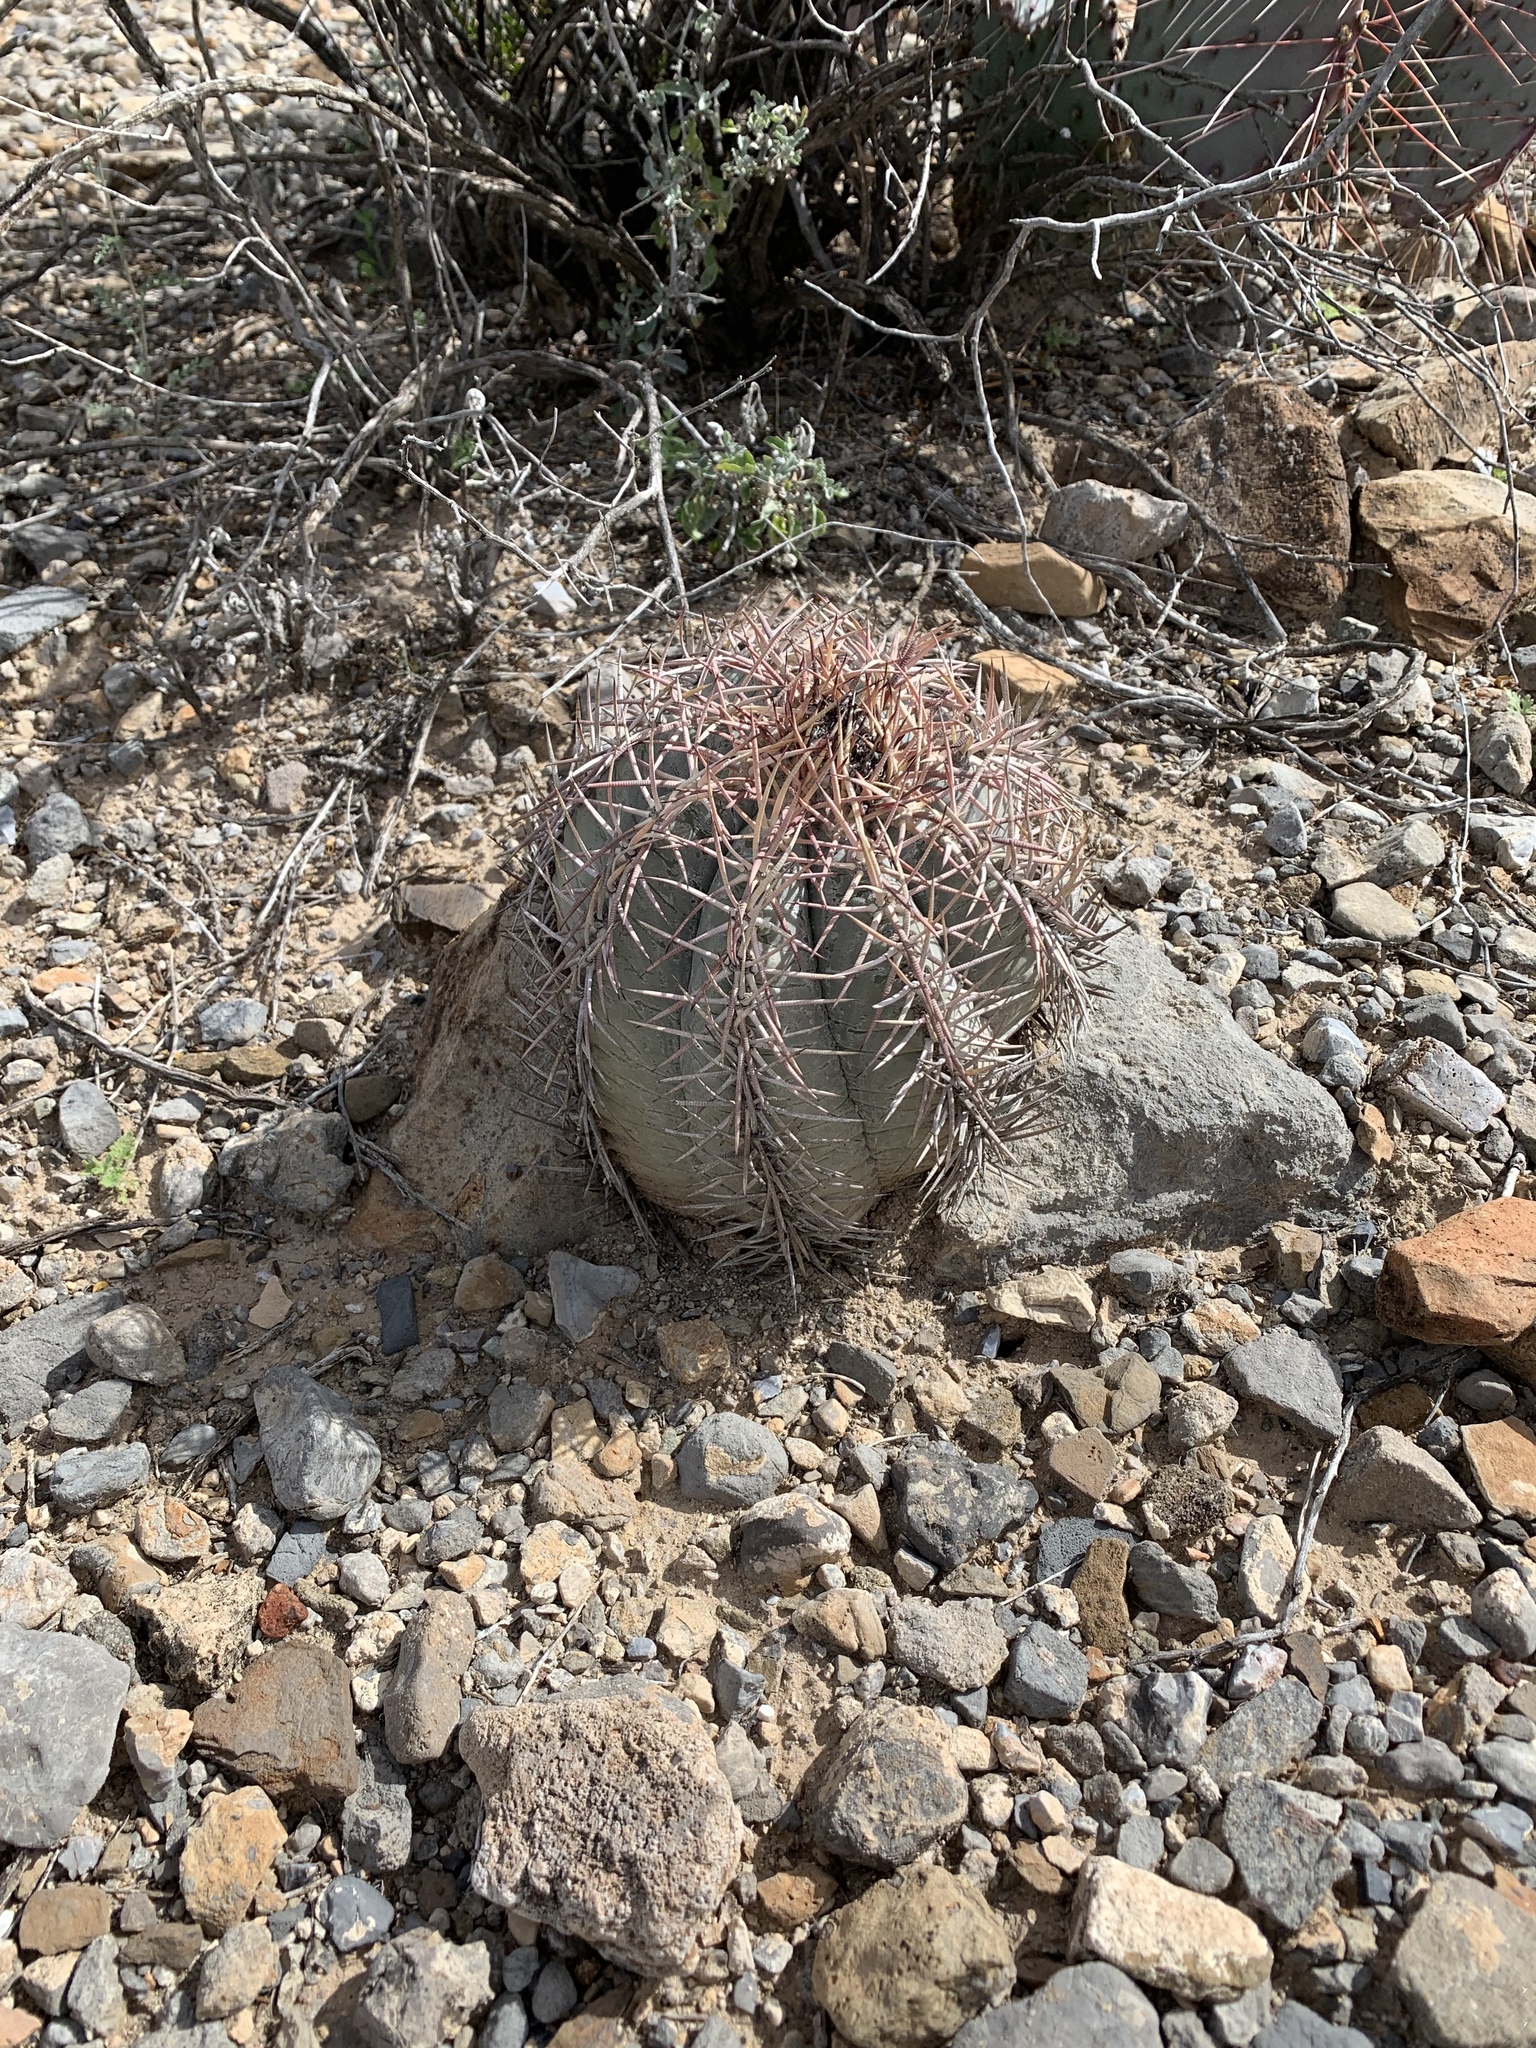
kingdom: Plantae
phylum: Tracheophyta
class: Magnoliopsida
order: Caryophyllales
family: Cactaceae
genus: Echinocactus
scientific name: Echinocactus horizonthalonius
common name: Devilshead
